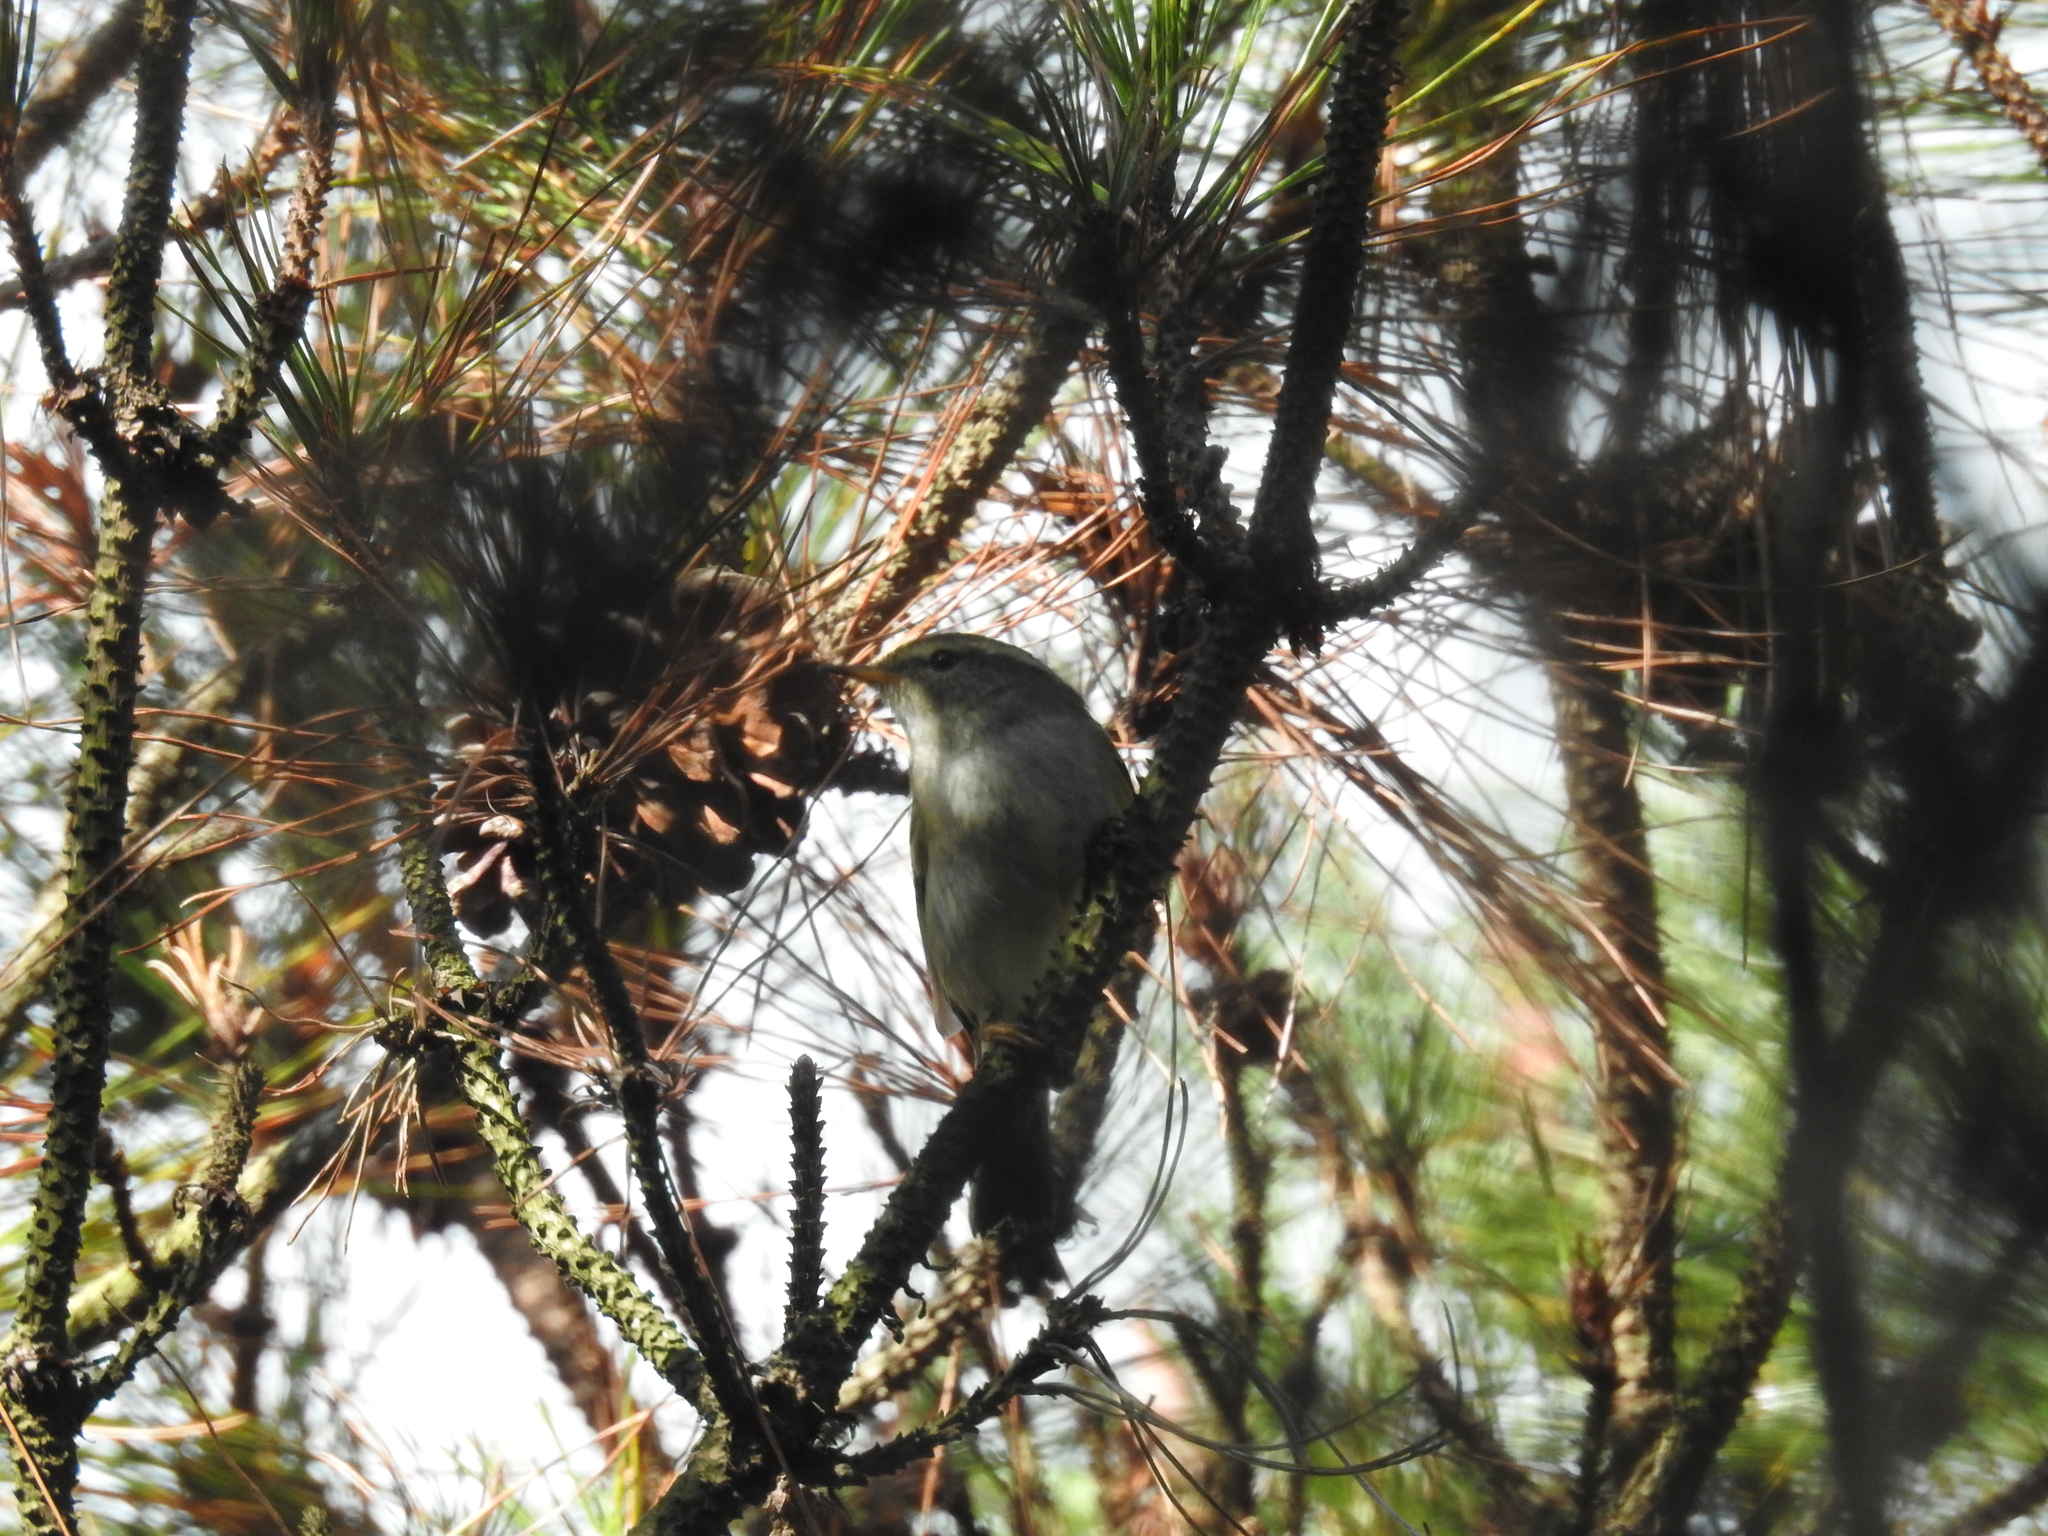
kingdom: Animalia
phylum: Chordata
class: Aves
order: Passeriformes
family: Phylloscopidae
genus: Phylloscopus
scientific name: Phylloscopus inornatus
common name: Yellow-browed warbler
